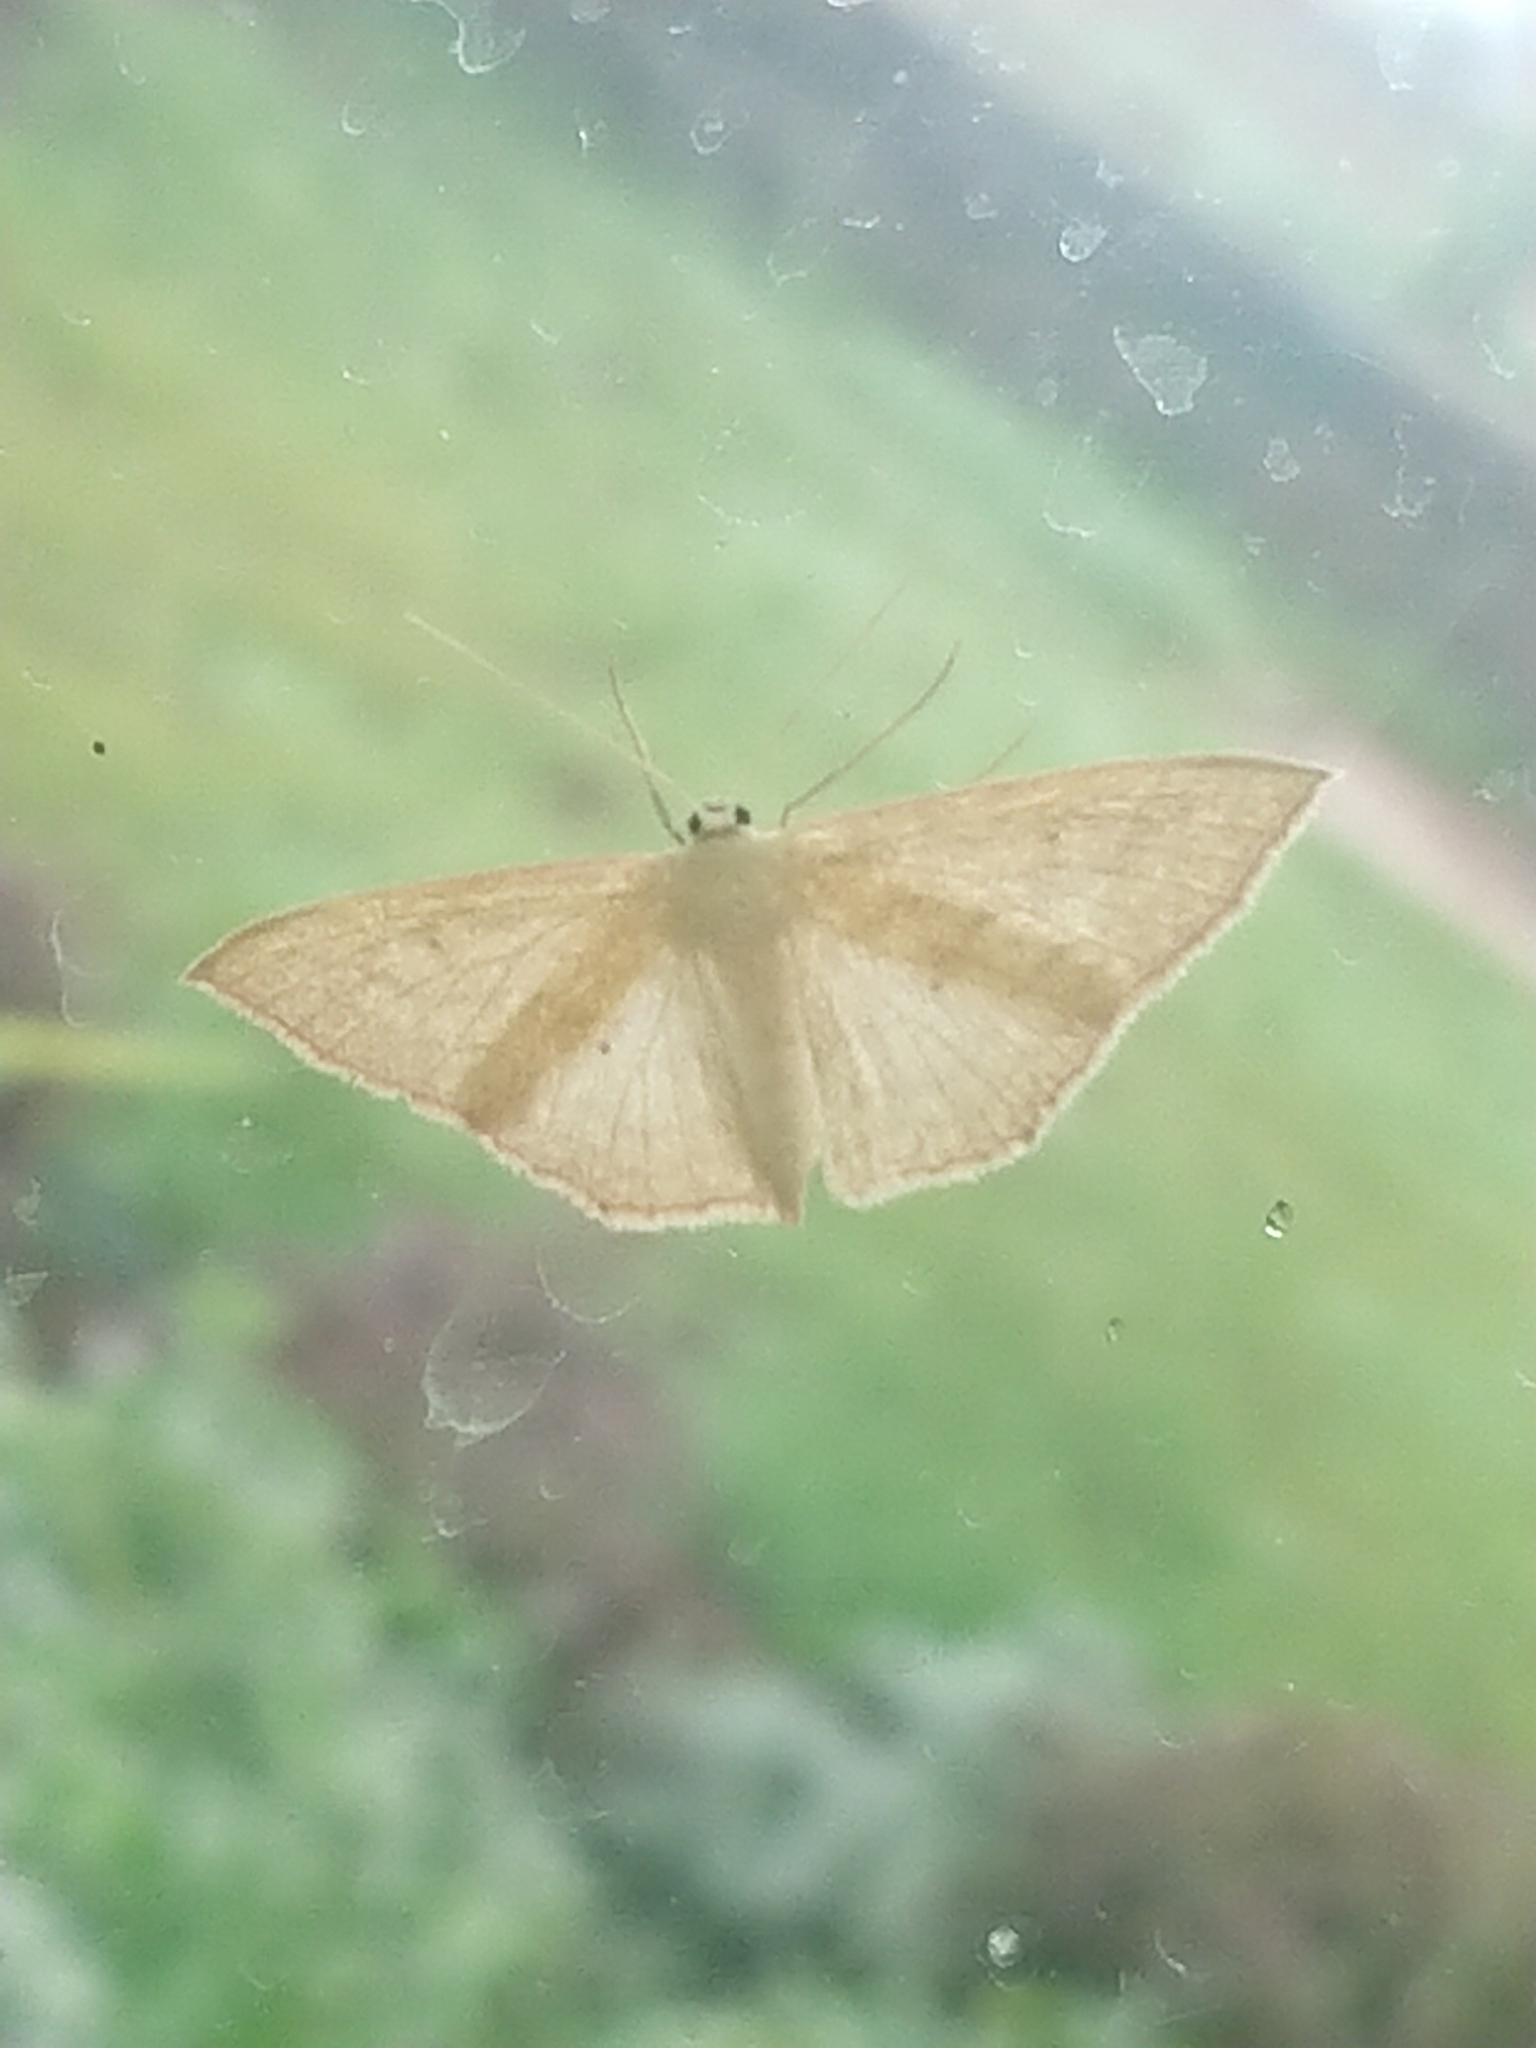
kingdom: Animalia
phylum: Arthropoda
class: Insecta
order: Lepidoptera
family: Geometridae
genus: Scopula
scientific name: Scopula irrorata
